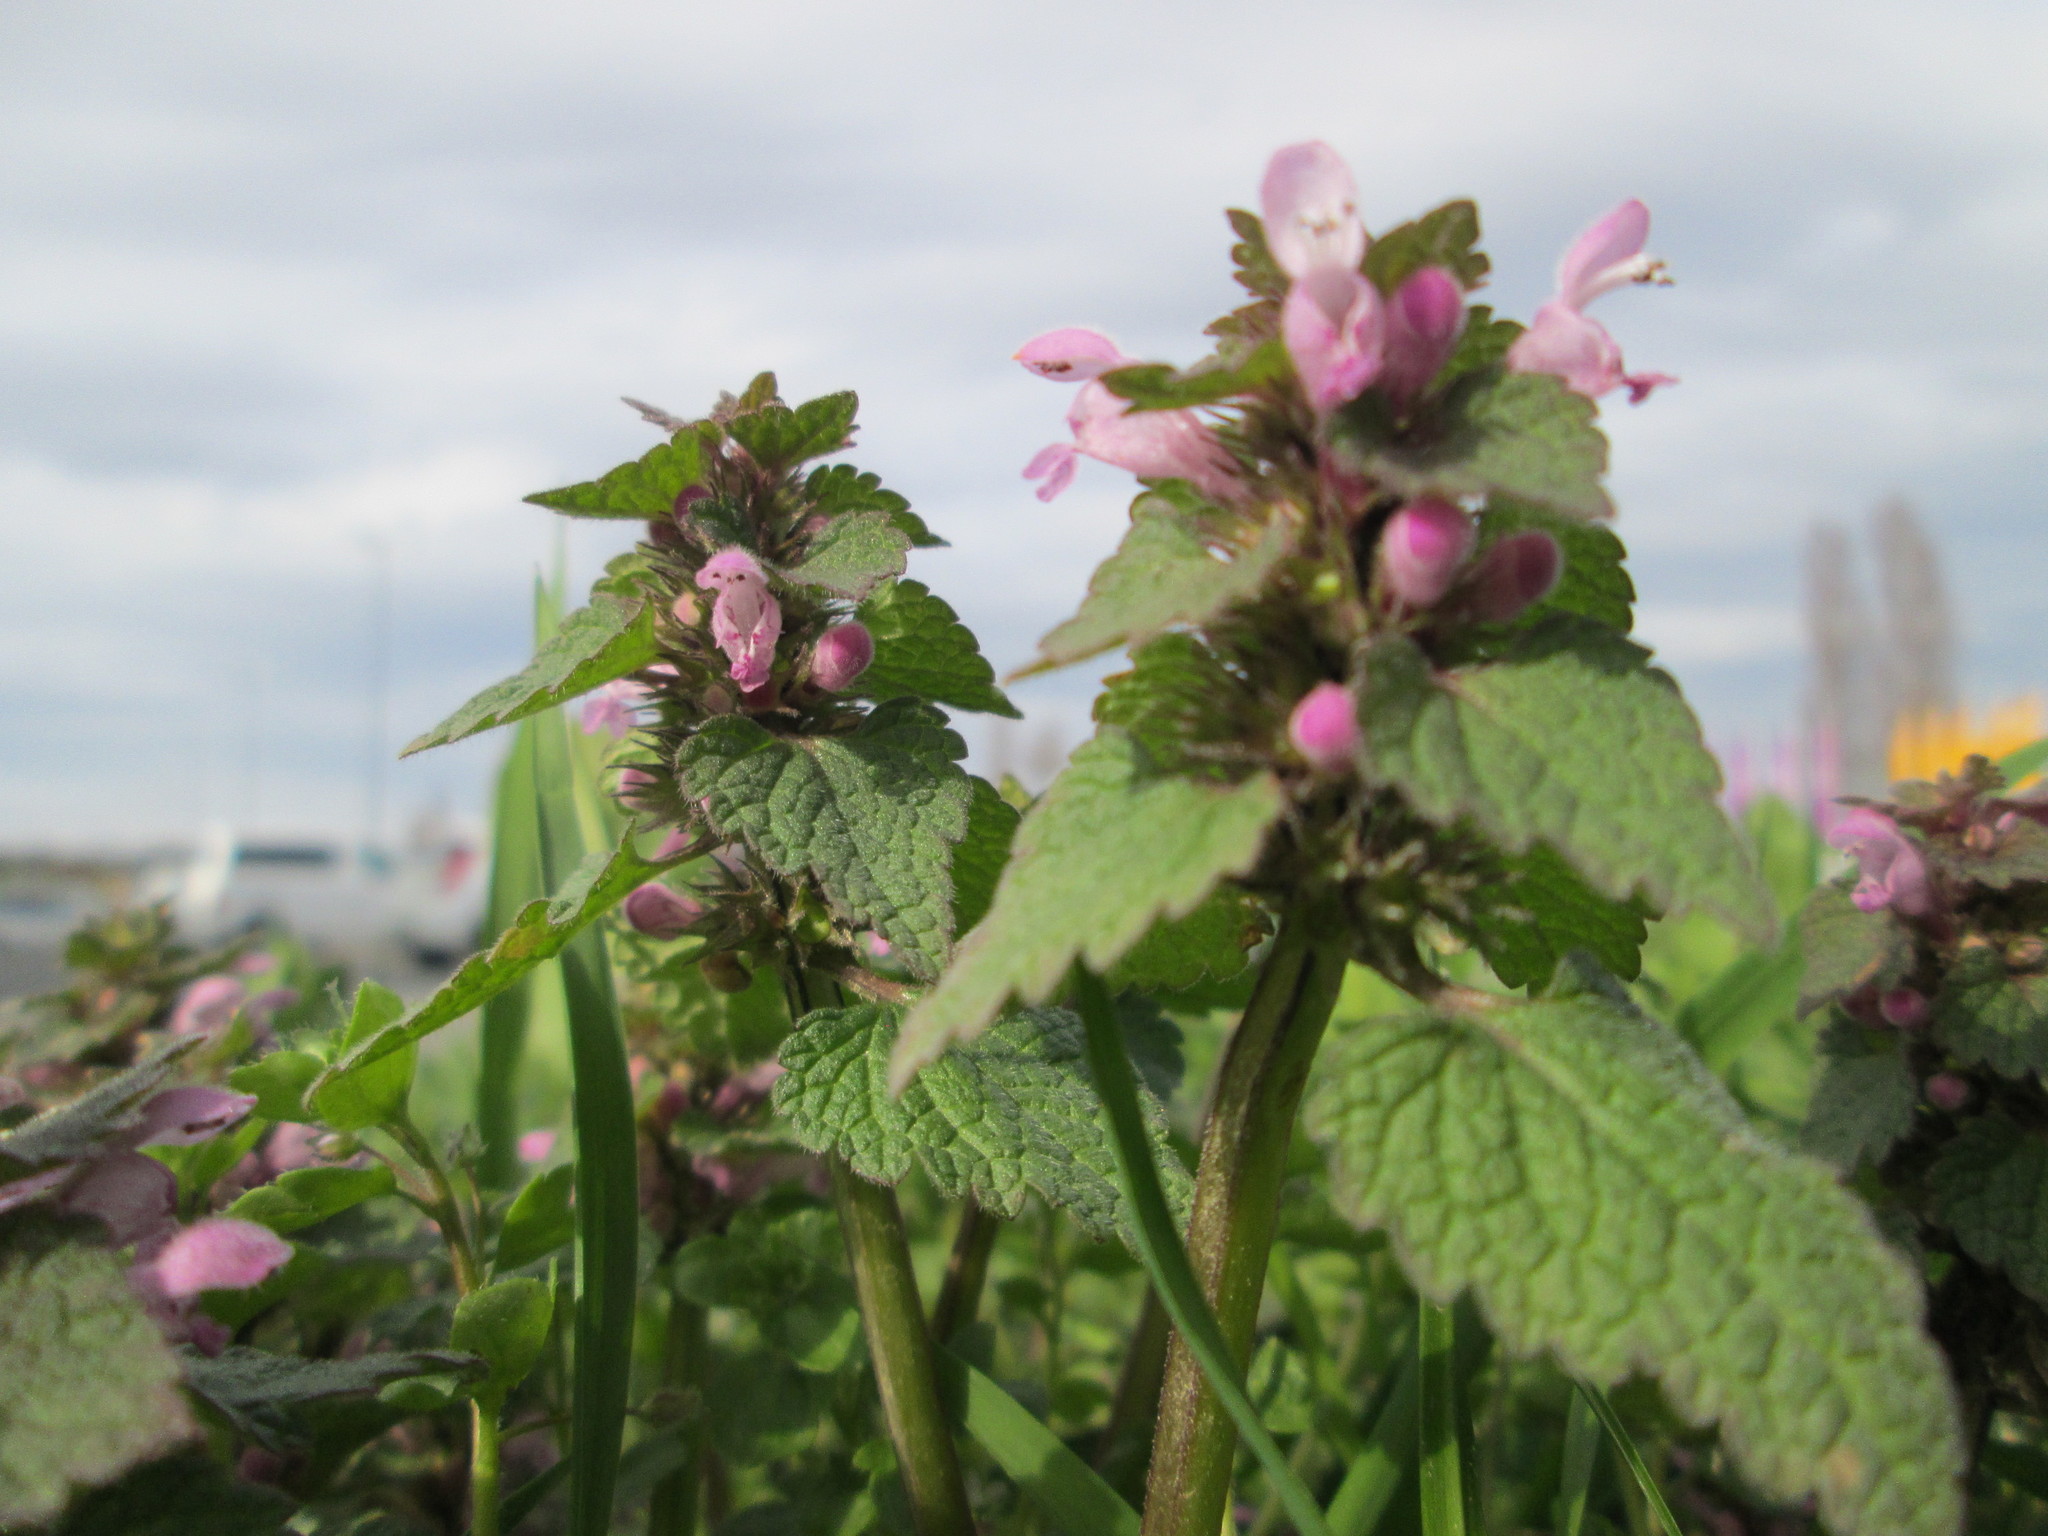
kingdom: Plantae
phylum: Tracheophyta
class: Magnoliopsida
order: Lamiales
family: Lamiaceae
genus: Lamium
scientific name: Lamium purpureum
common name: Red dead-nettle
